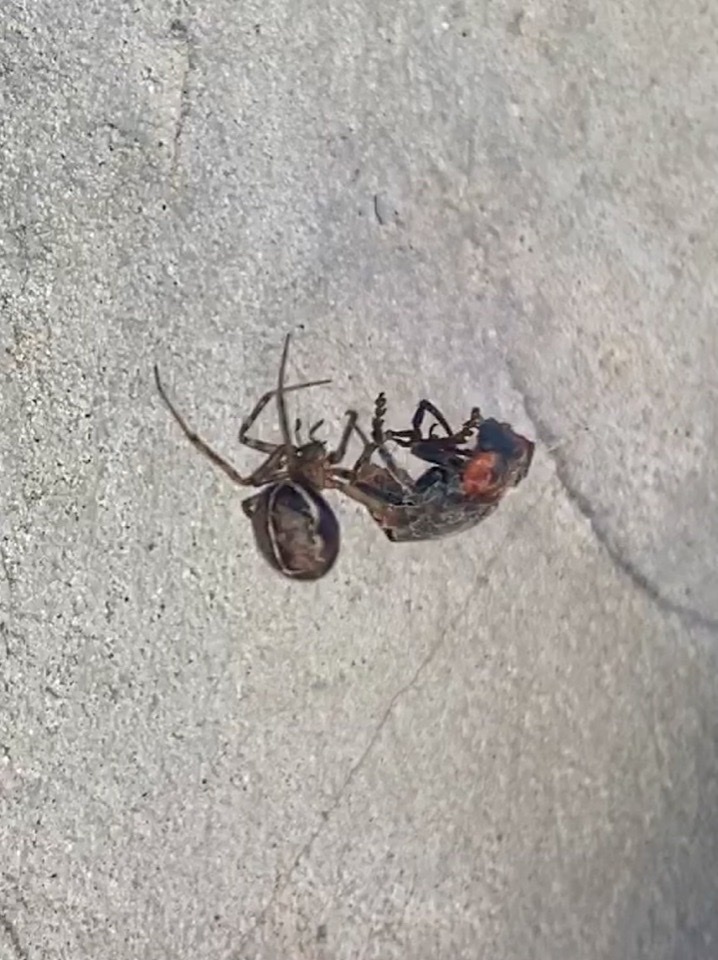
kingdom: Animalia
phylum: Arthropoda
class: Arachnida
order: Araneae
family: Theridiidae
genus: Steatoda
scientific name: Steatoda castanea
